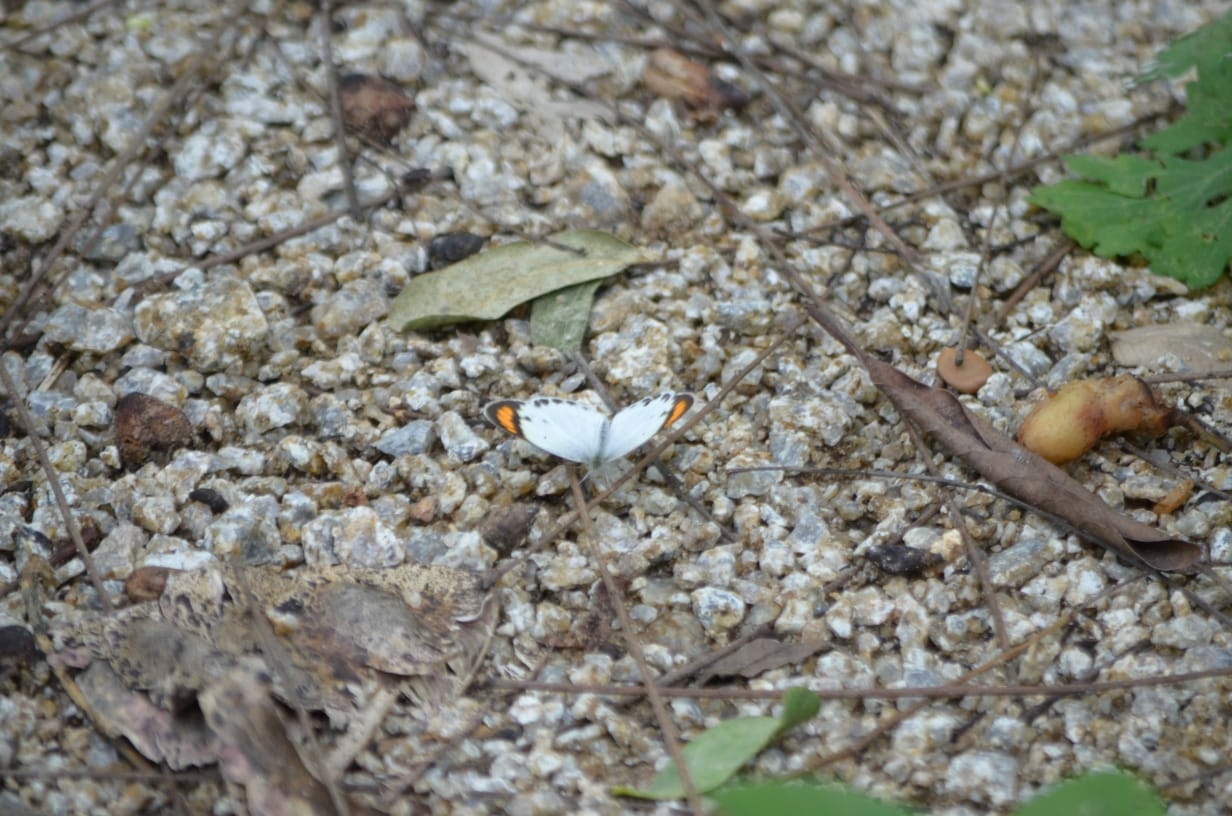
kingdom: Animalia
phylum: Arthropoda
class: Insecta
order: Lepidoptera
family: Pieridae
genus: Colotis
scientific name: Colotis etrida
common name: Little orange tip
